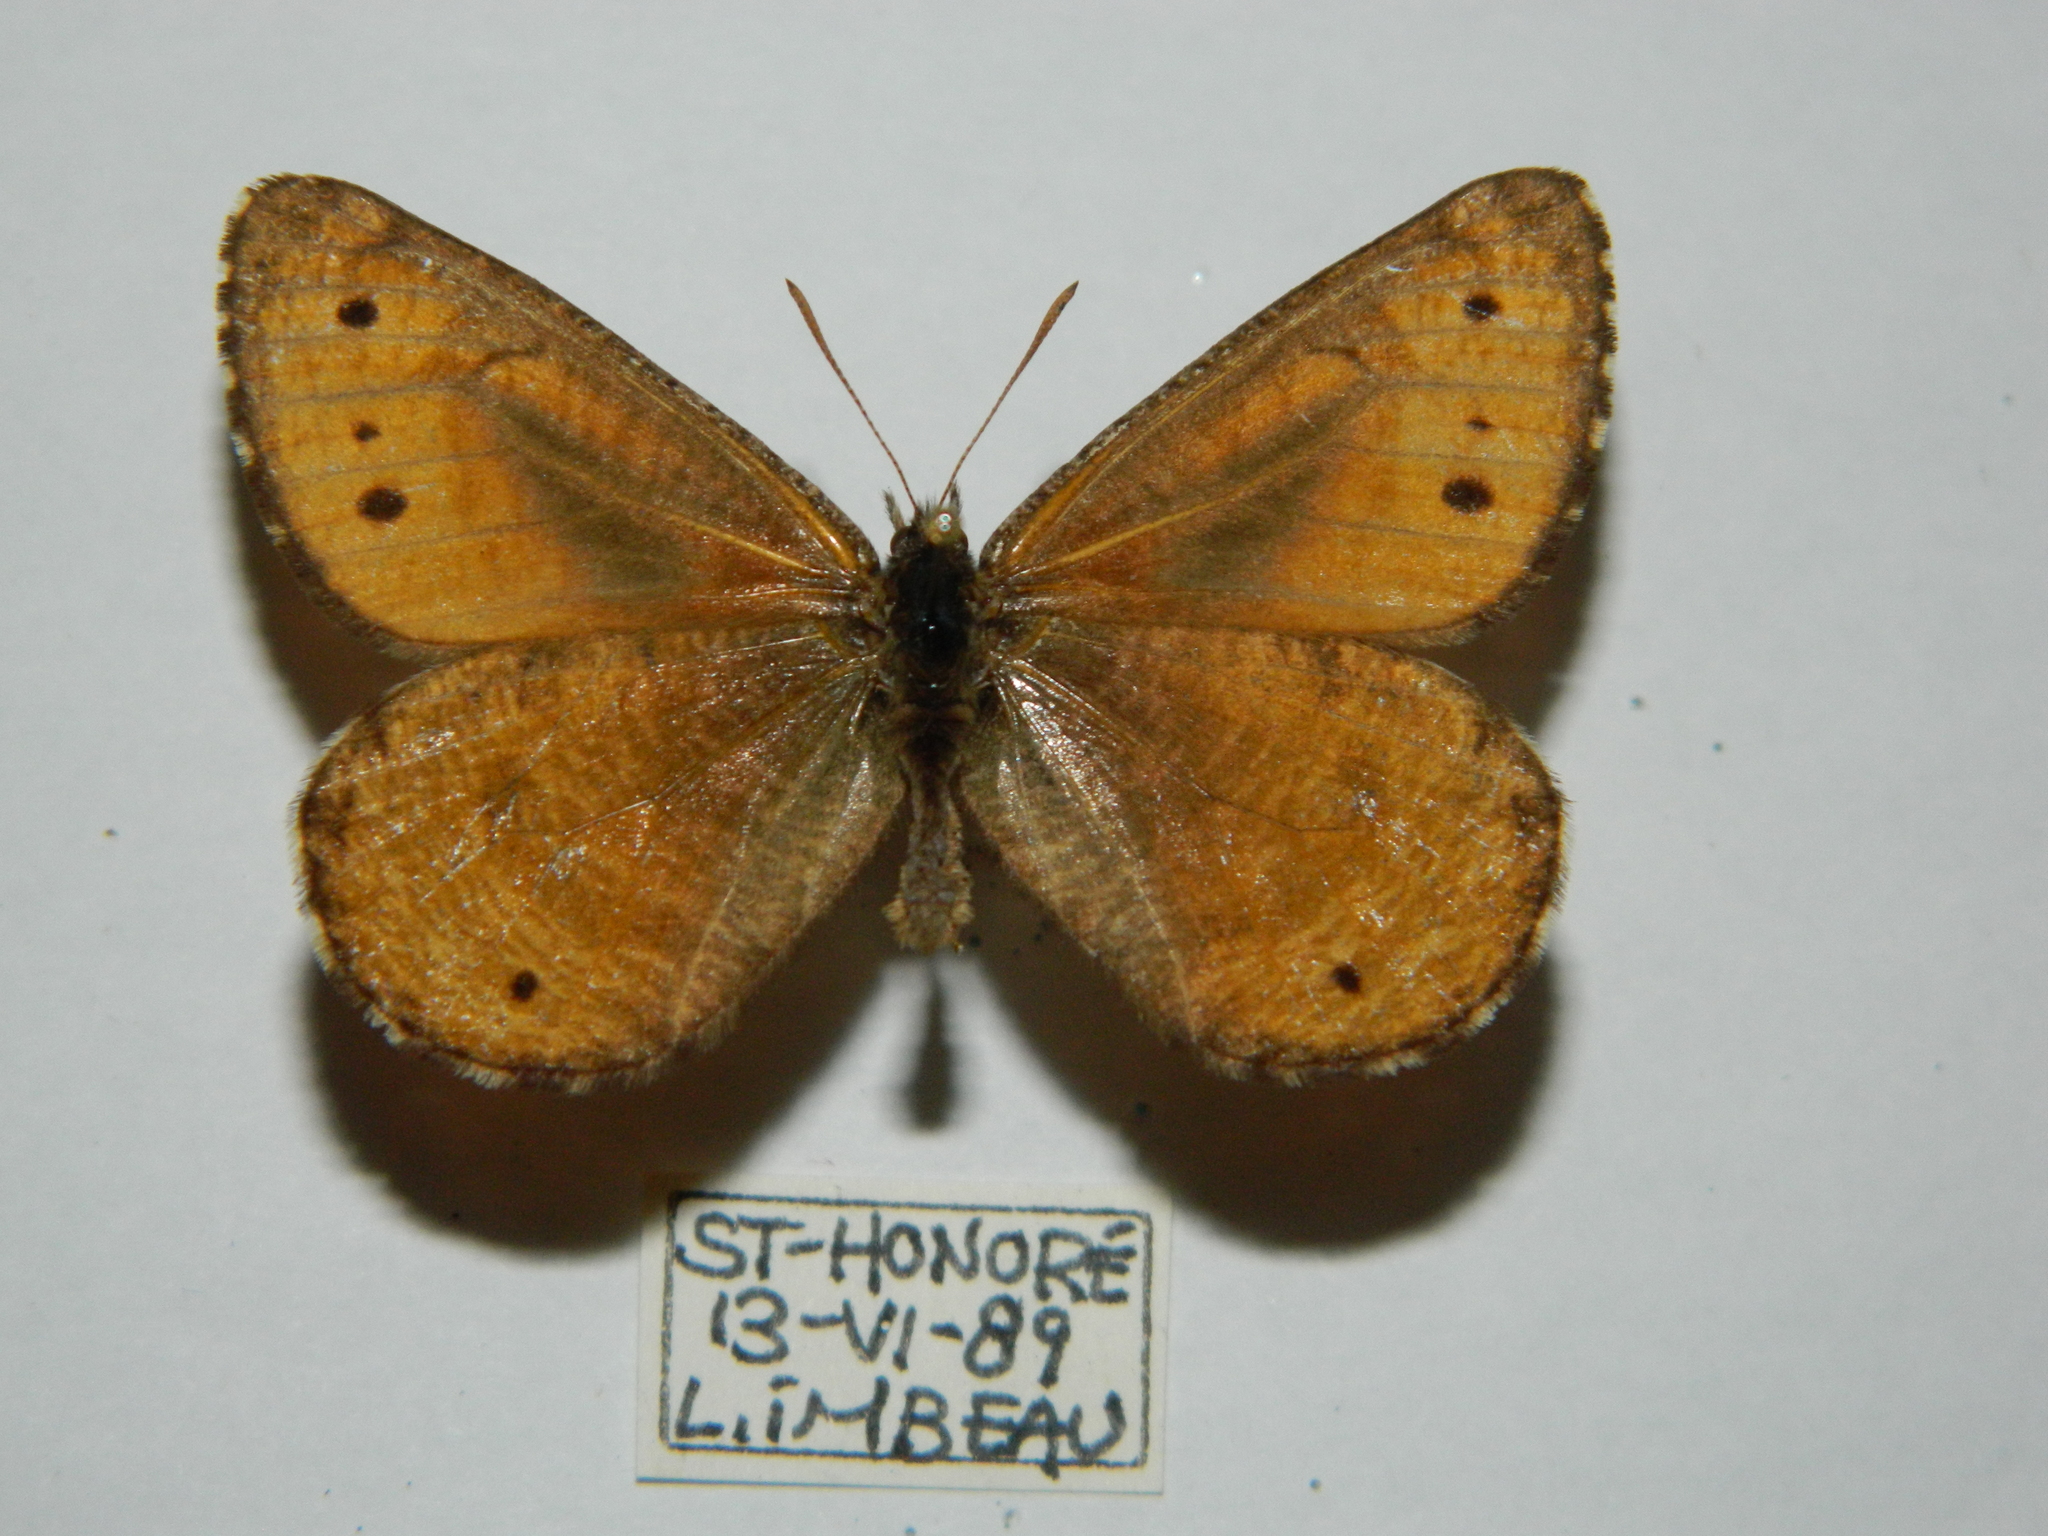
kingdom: Animalia
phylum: Arthropoda
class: Insecta
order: Lepidoptera
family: Nymphalidae
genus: Oeneis
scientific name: Oeneis chryxus
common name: Chryxus arctic
